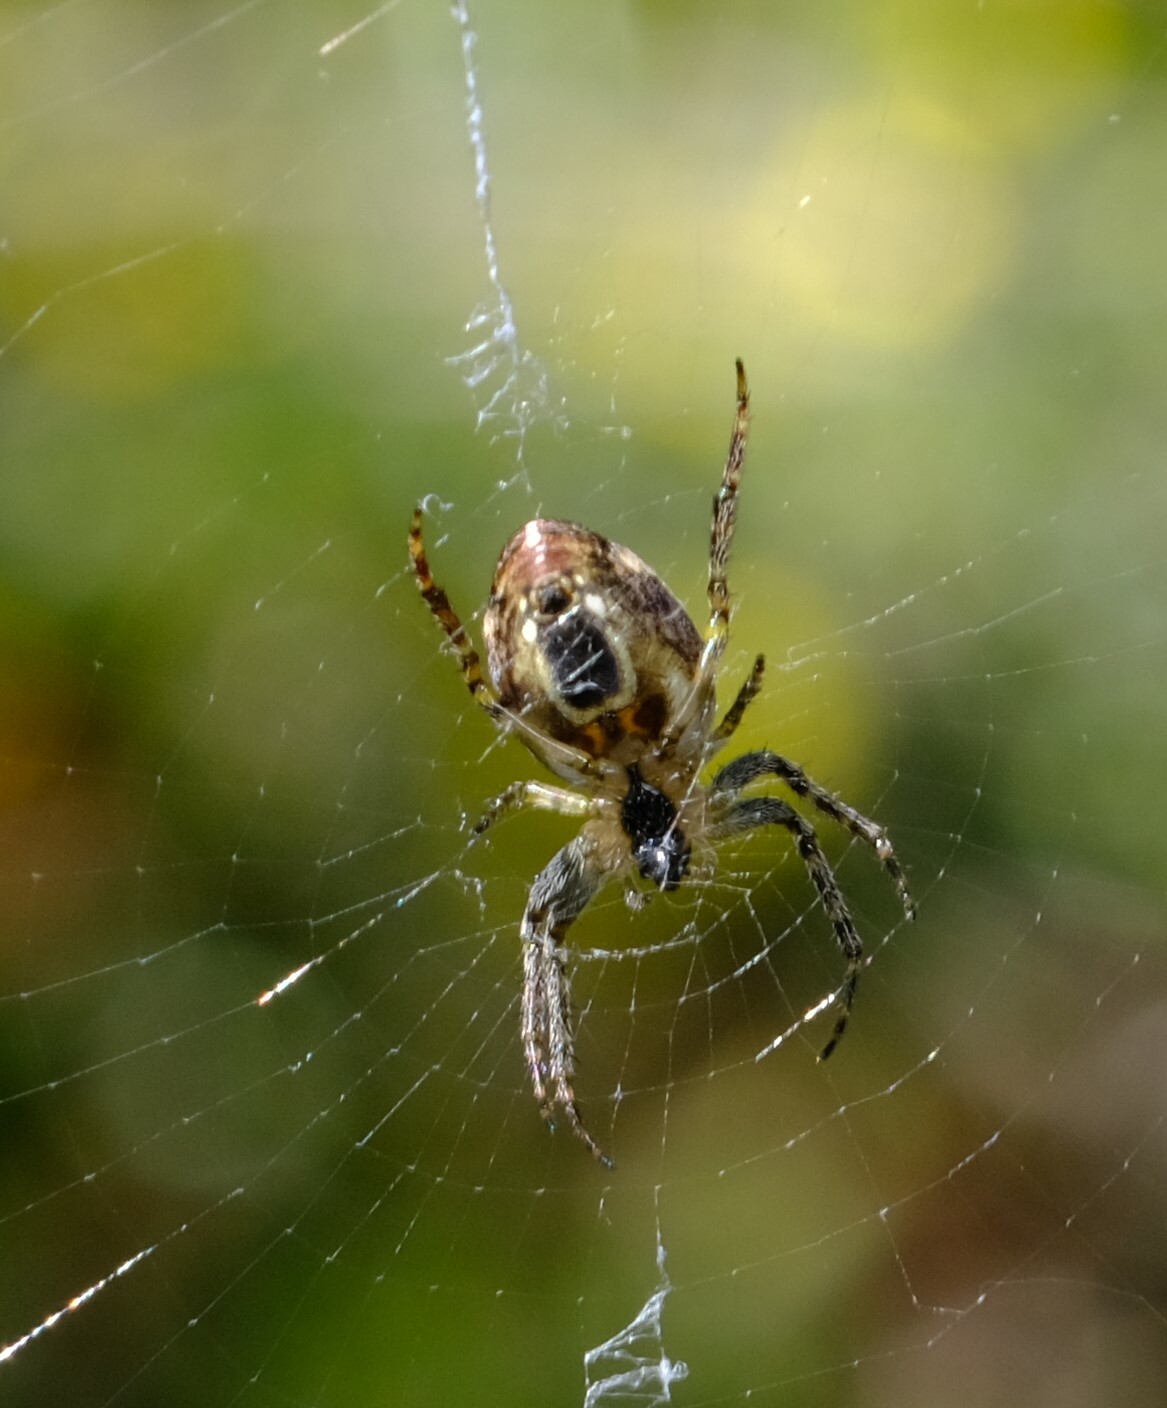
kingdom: Animalia
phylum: Arthropoda
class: Arachnida
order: Araneae
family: Araneidae
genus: Plebs
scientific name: Plebs eburnus
